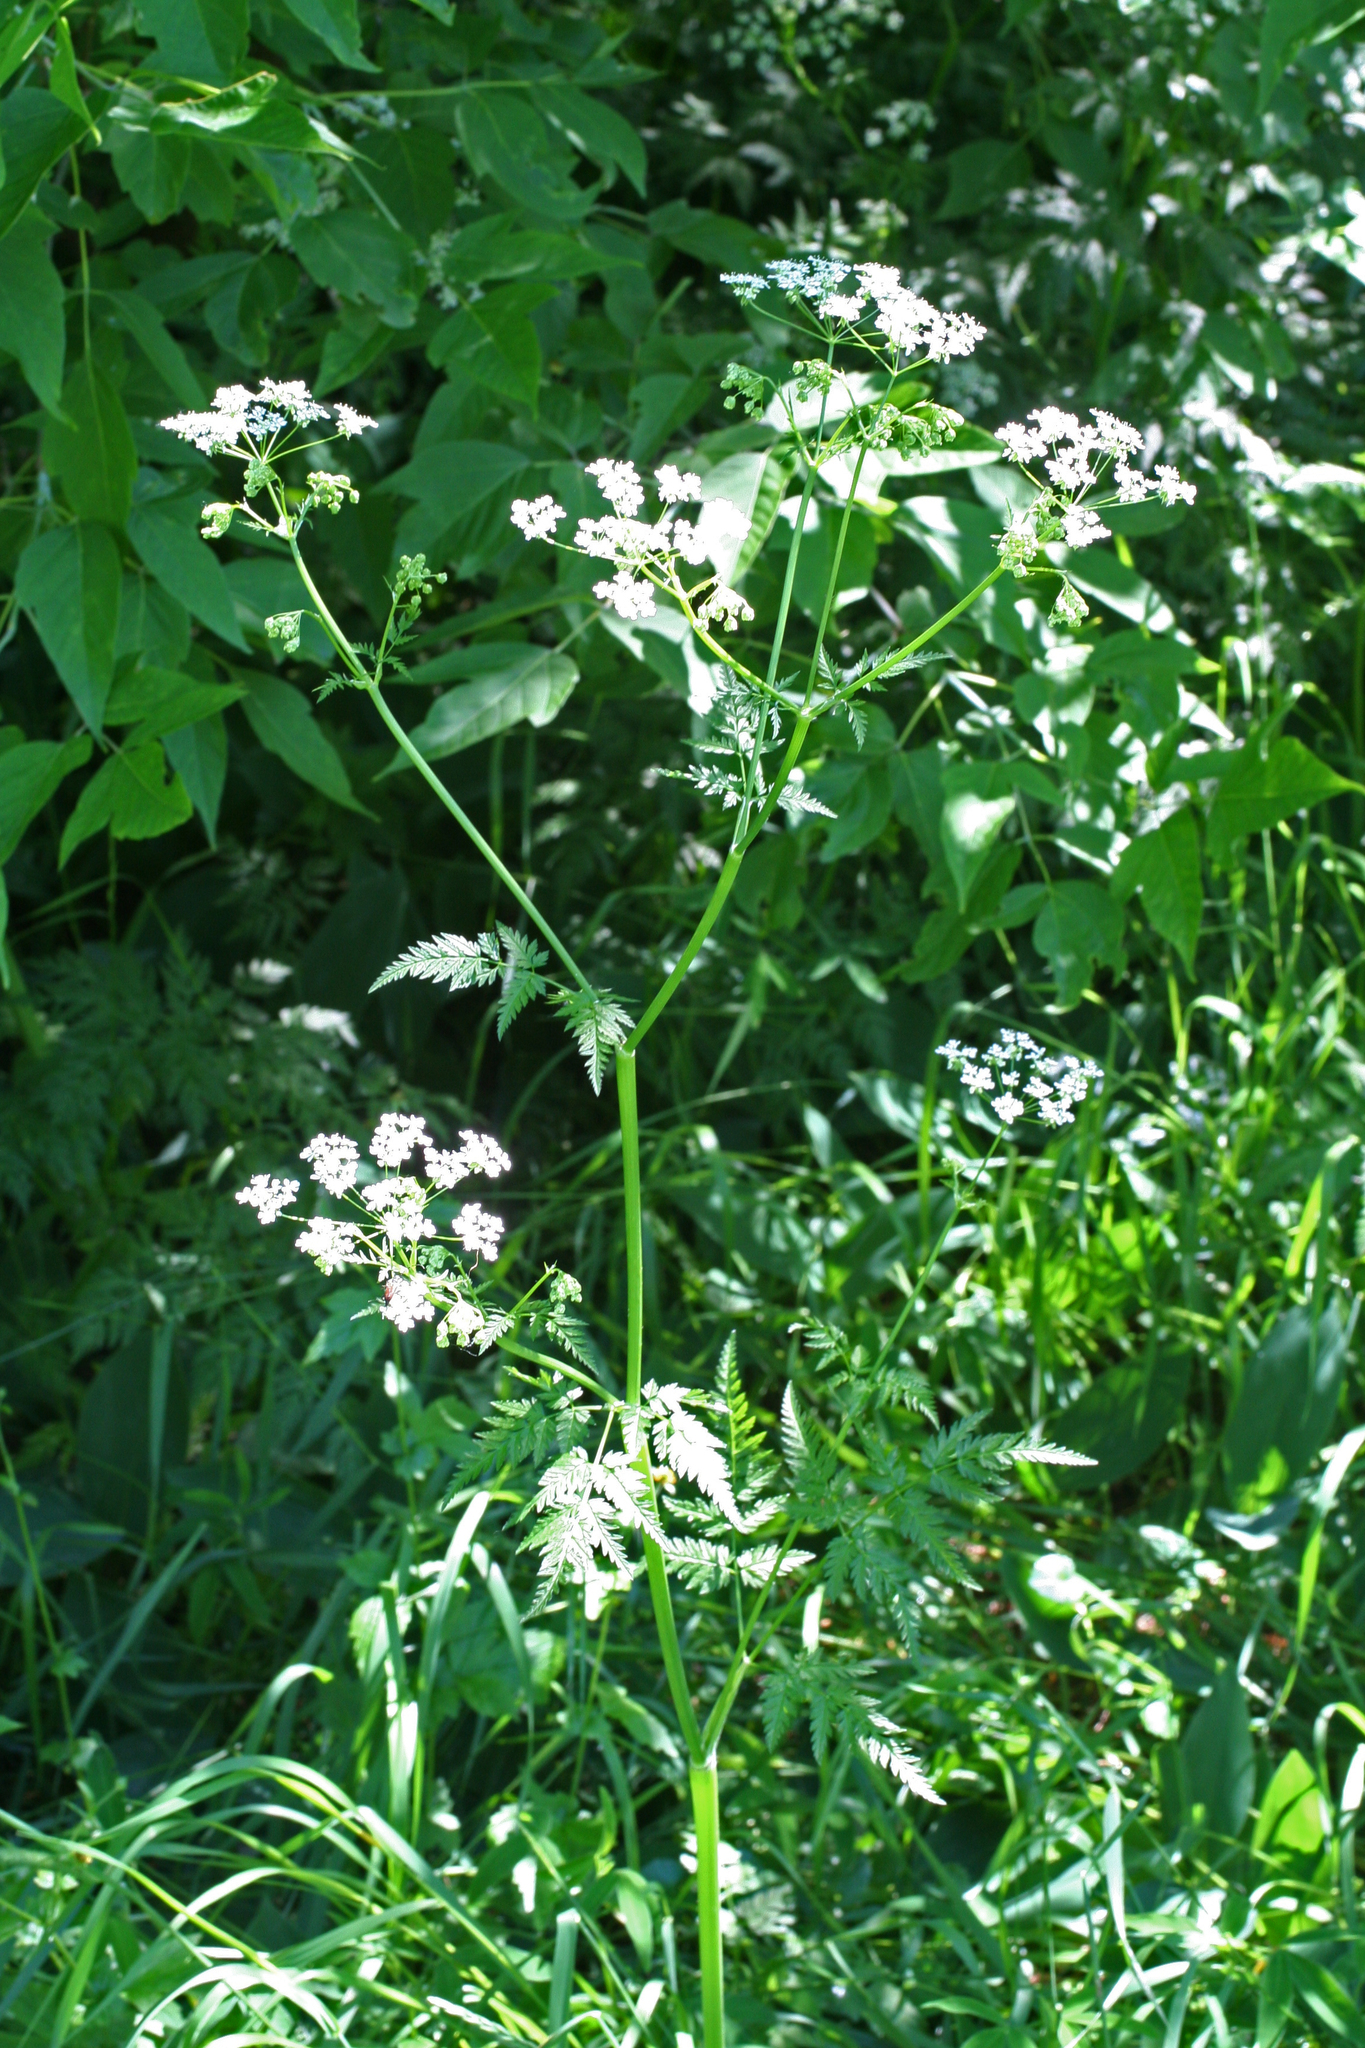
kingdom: Plantae
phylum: Tracheophyta
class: Magnoliopsida
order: Apiales
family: Apiaceae
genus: Anthriscus
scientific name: Anthriscus sylvestris
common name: Cow parsley
